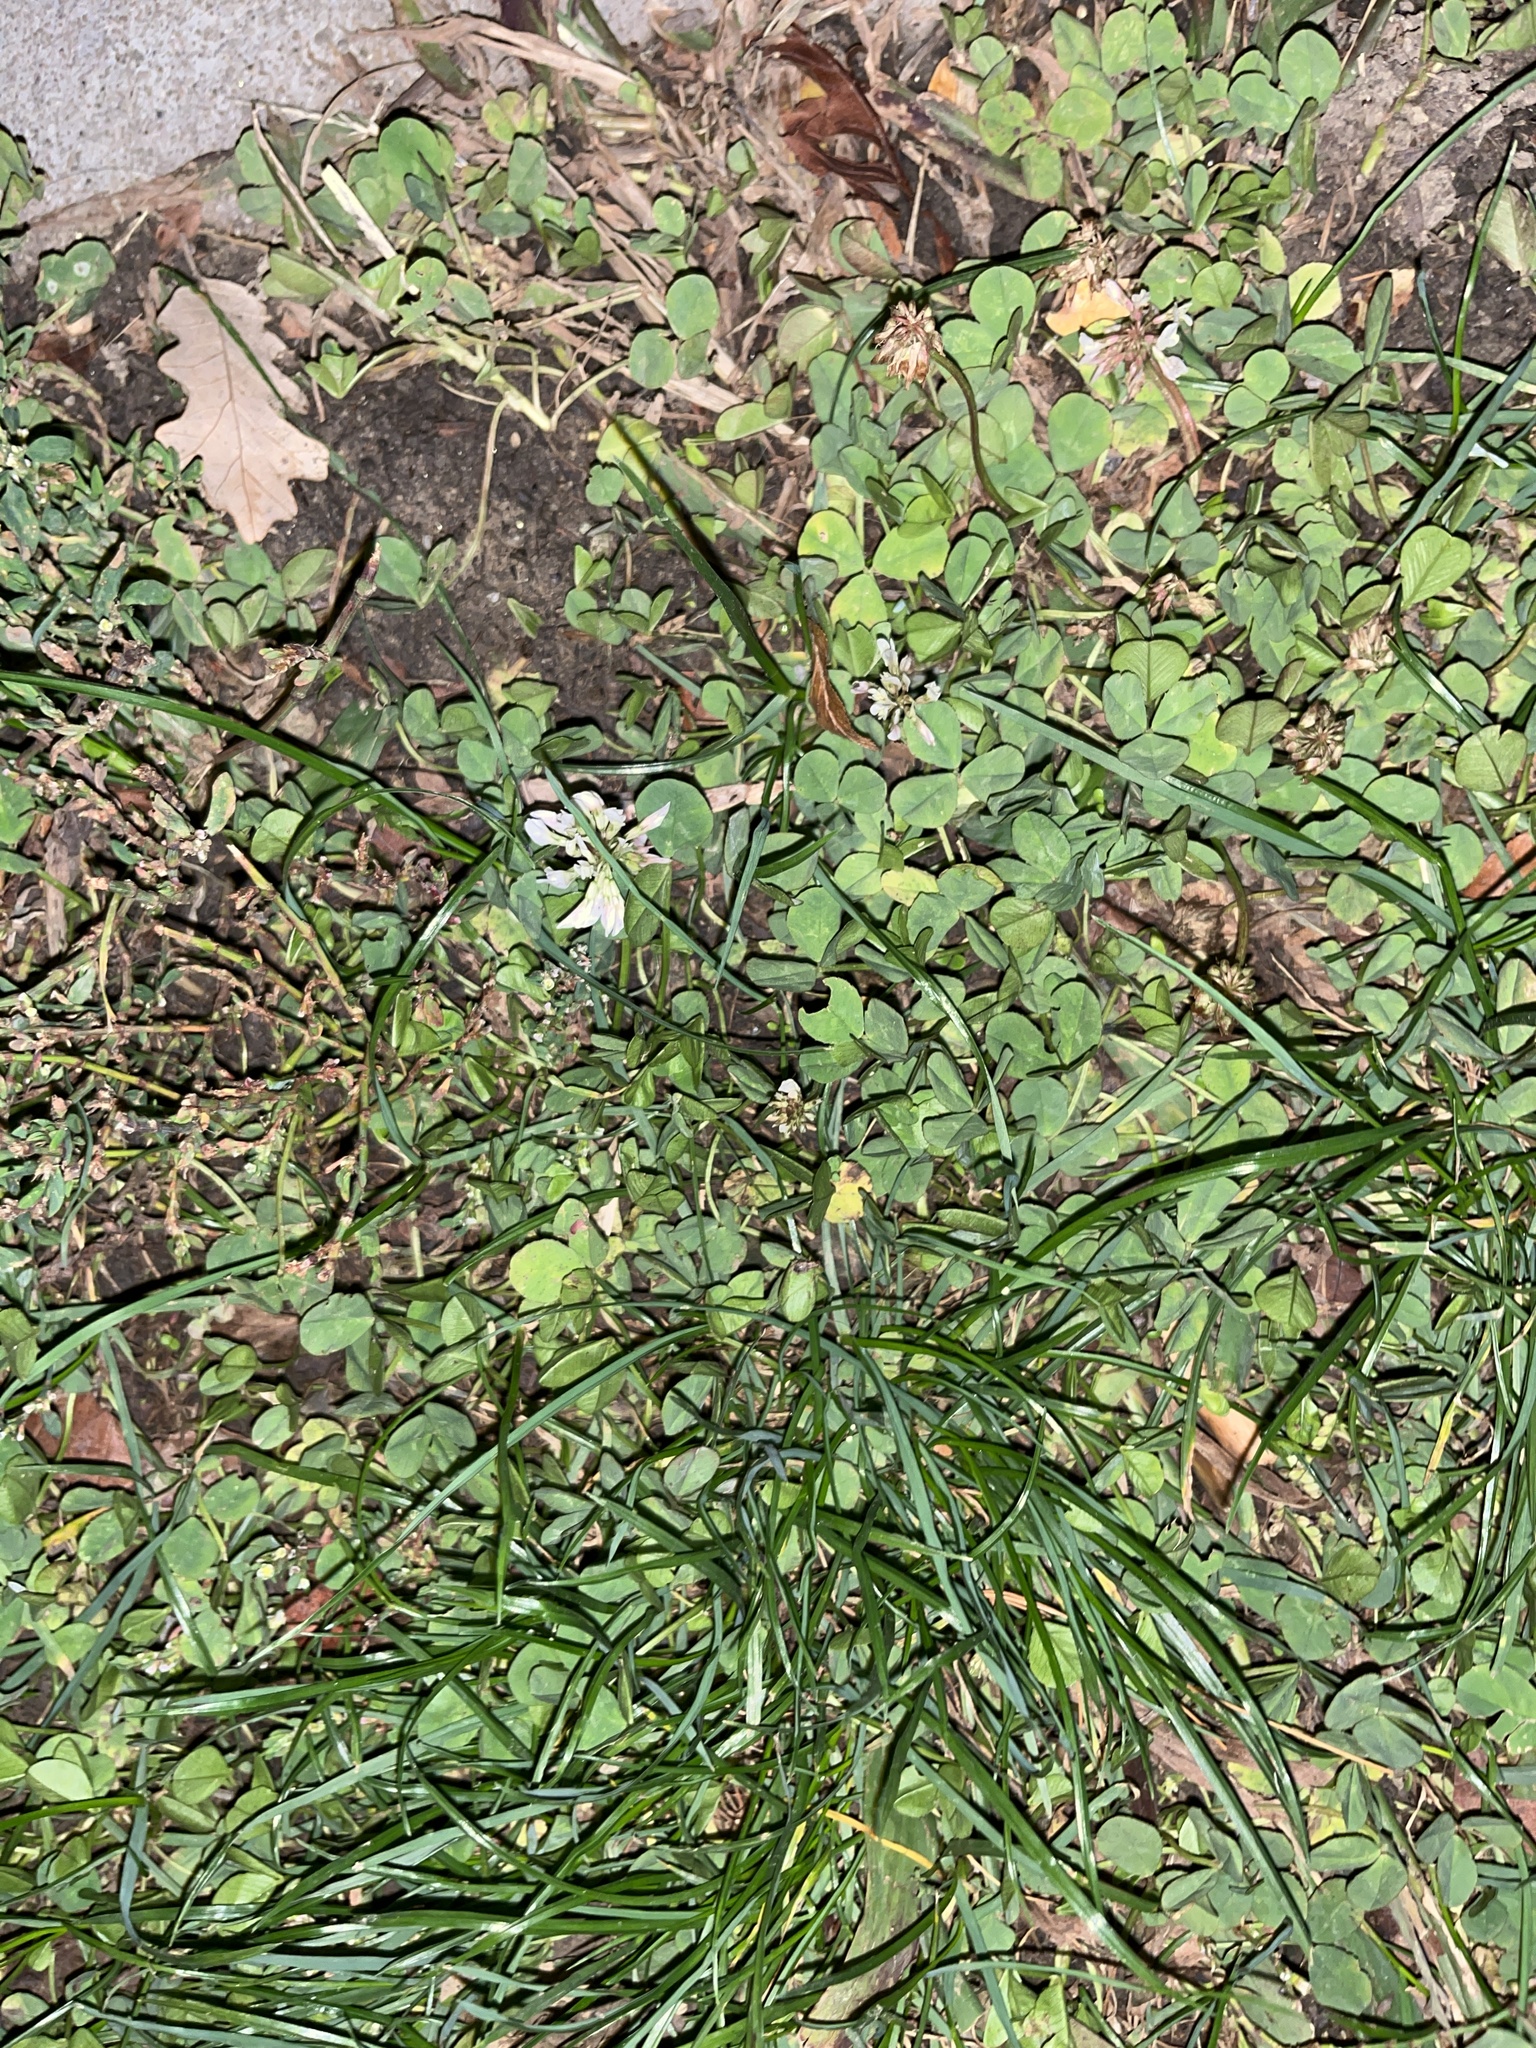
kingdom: Plantae
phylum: Tracheophyta
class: Magnoliopsida
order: Fabales
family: Fabaceae
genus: Trifolium
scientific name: Trifolium repens
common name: White clover
